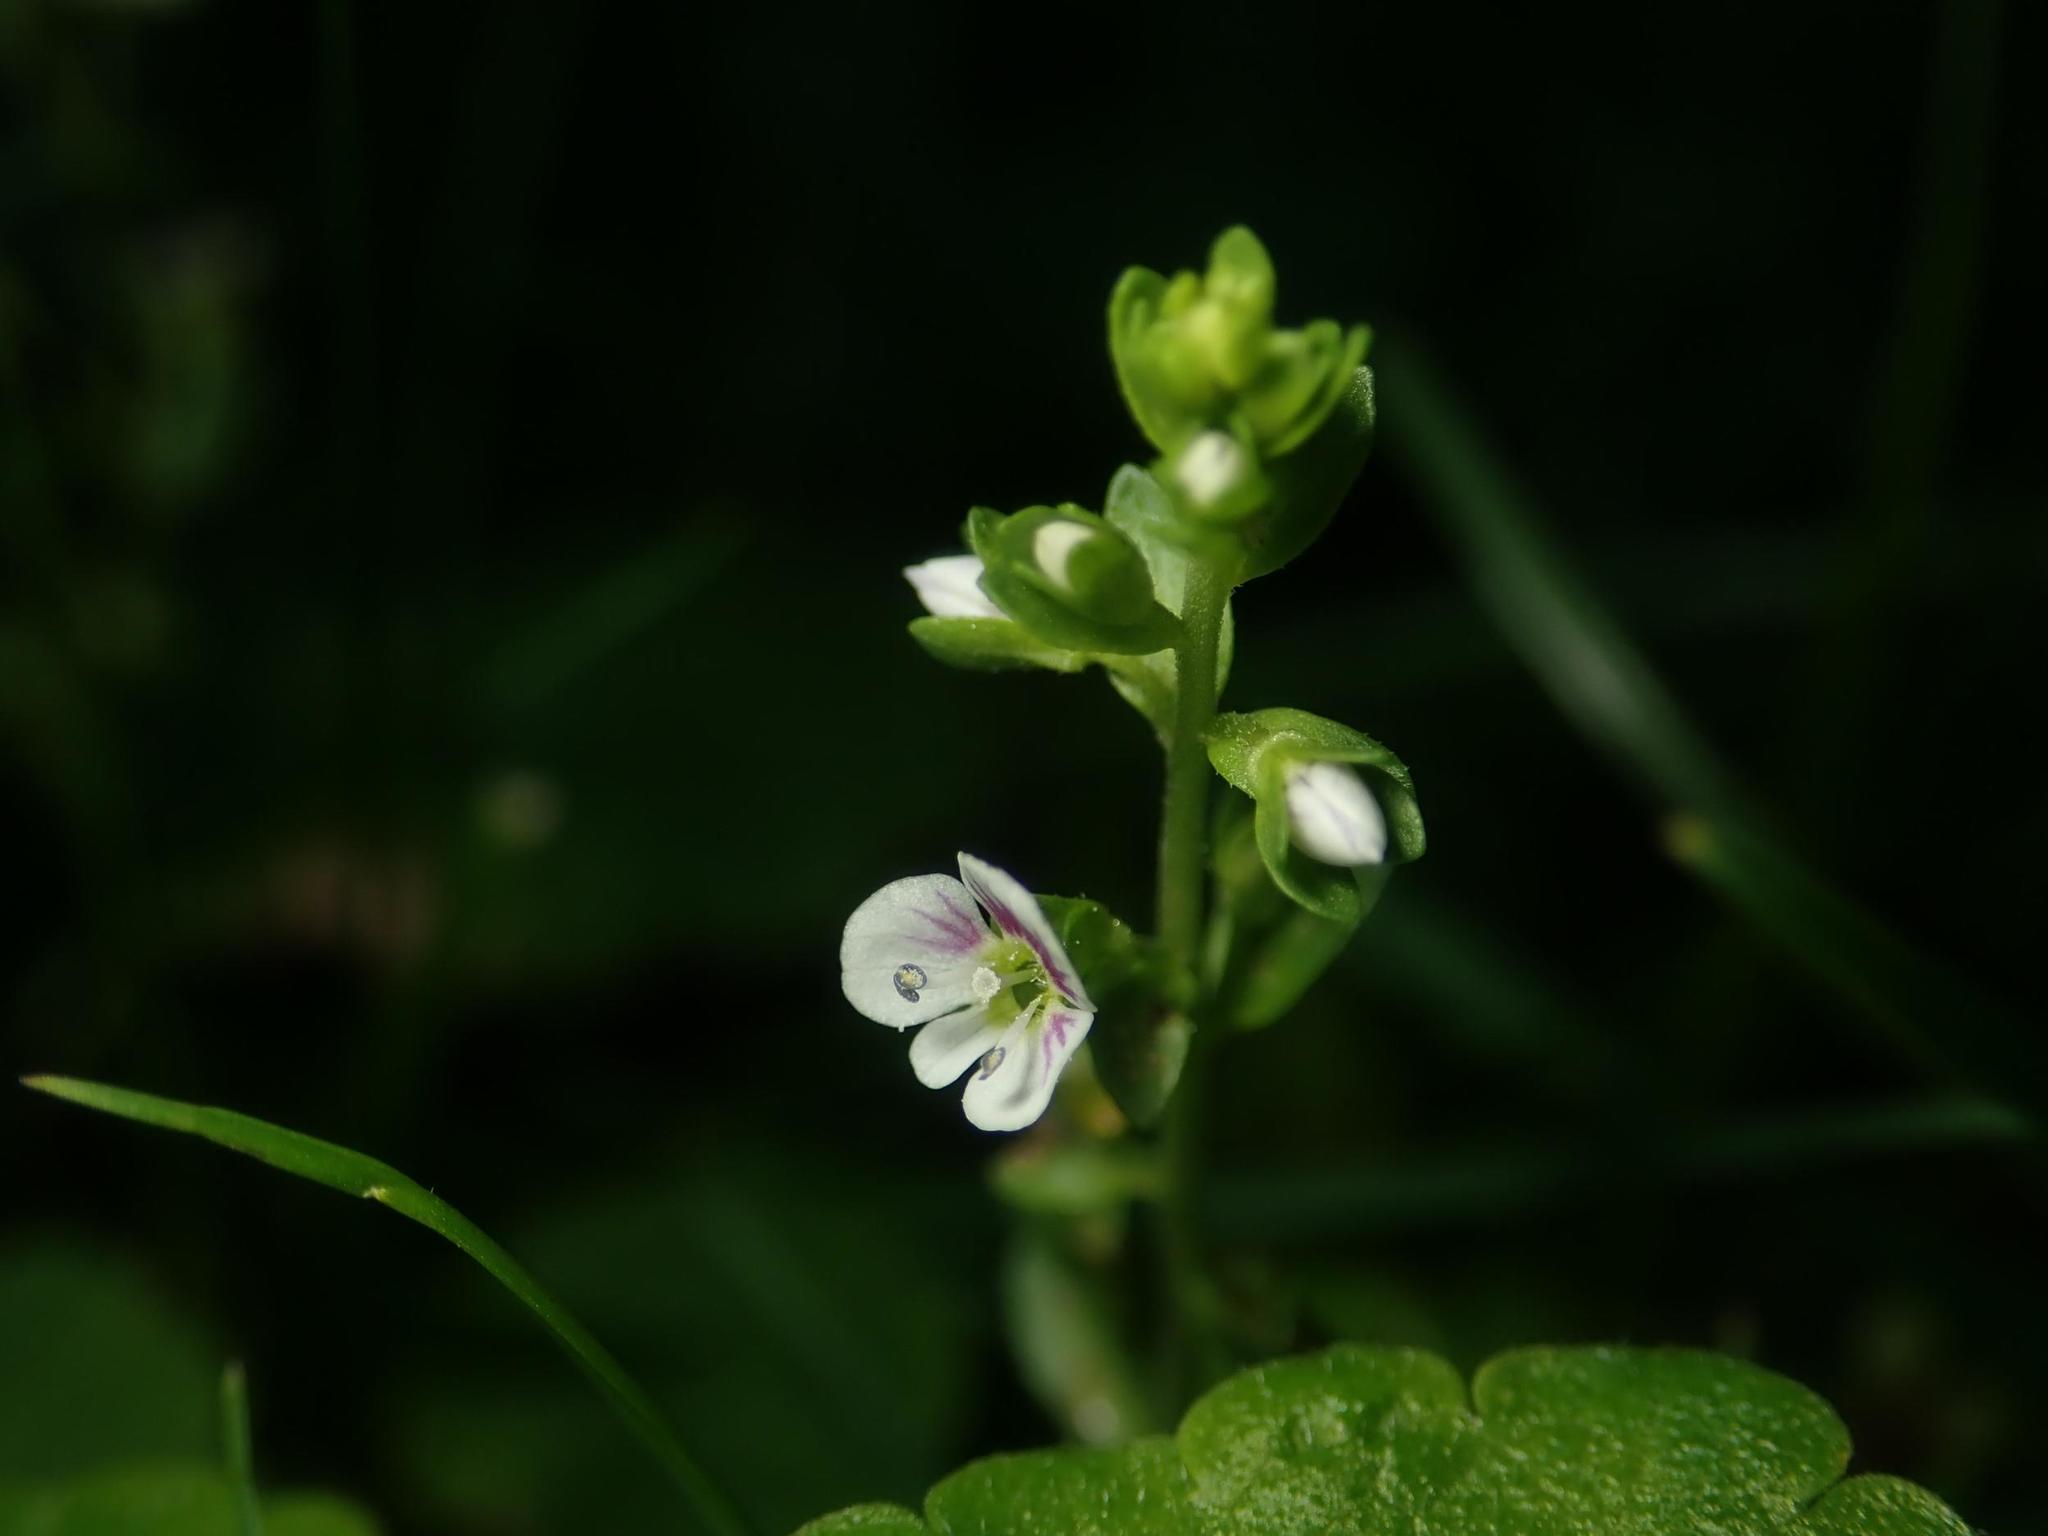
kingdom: Plantae
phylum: Tracheophyta
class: Magnoliopsida
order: Lamiales
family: Plantaginaceae
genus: Veronica
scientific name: Veronica serpyllifolia
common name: Thyme-leaved speedwell
